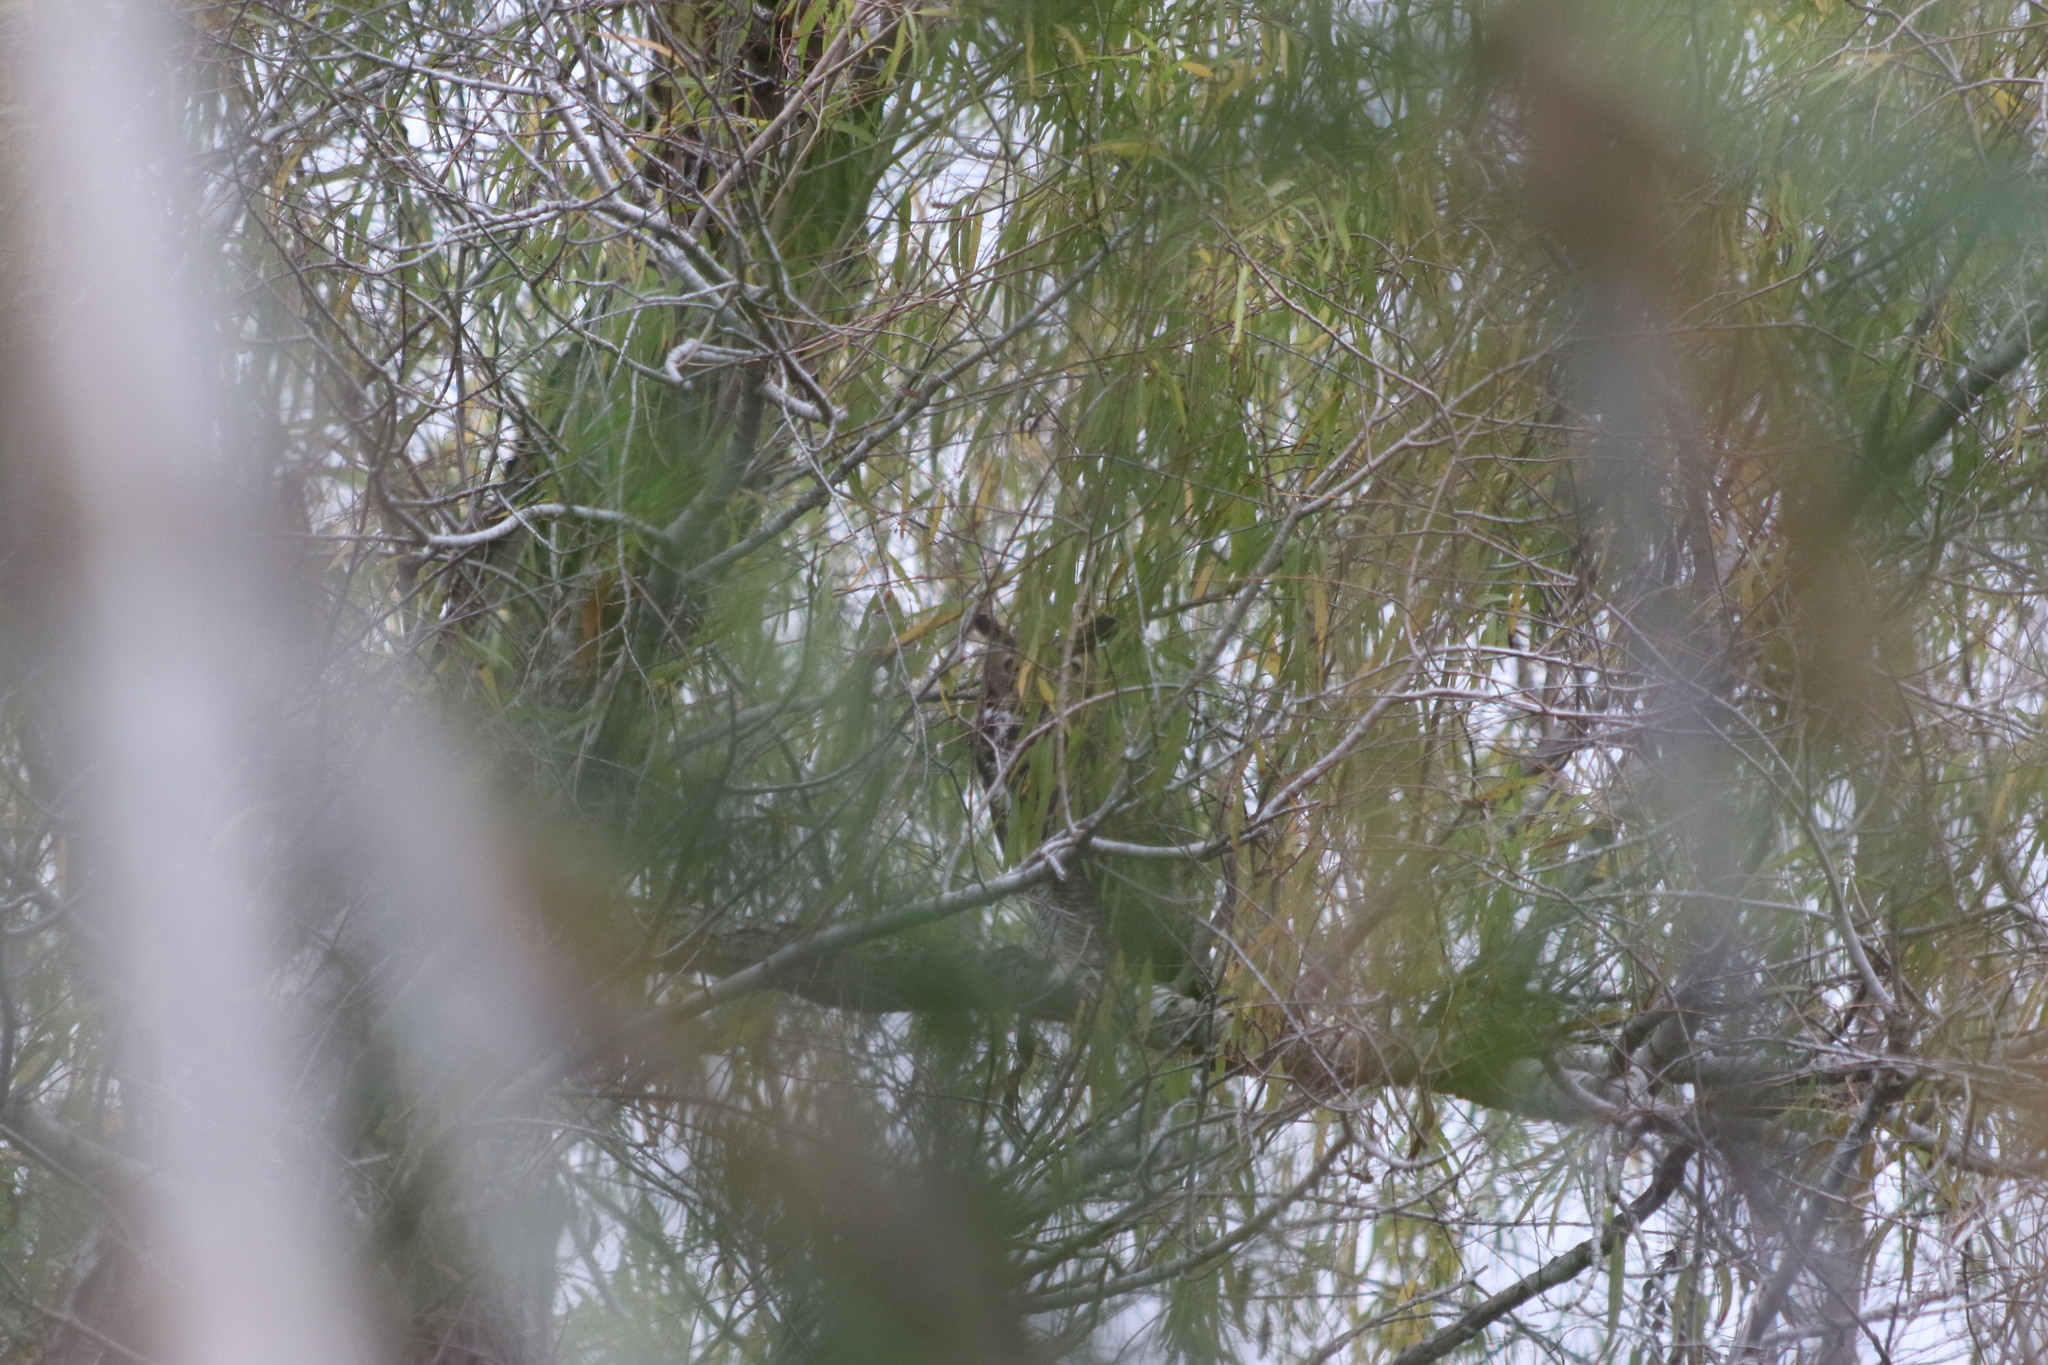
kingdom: Animalia
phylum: Chordata
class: Aves
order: Strigiformes
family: Strigidae
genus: Bubo
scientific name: Bubo virginianus
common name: Great horned owl
